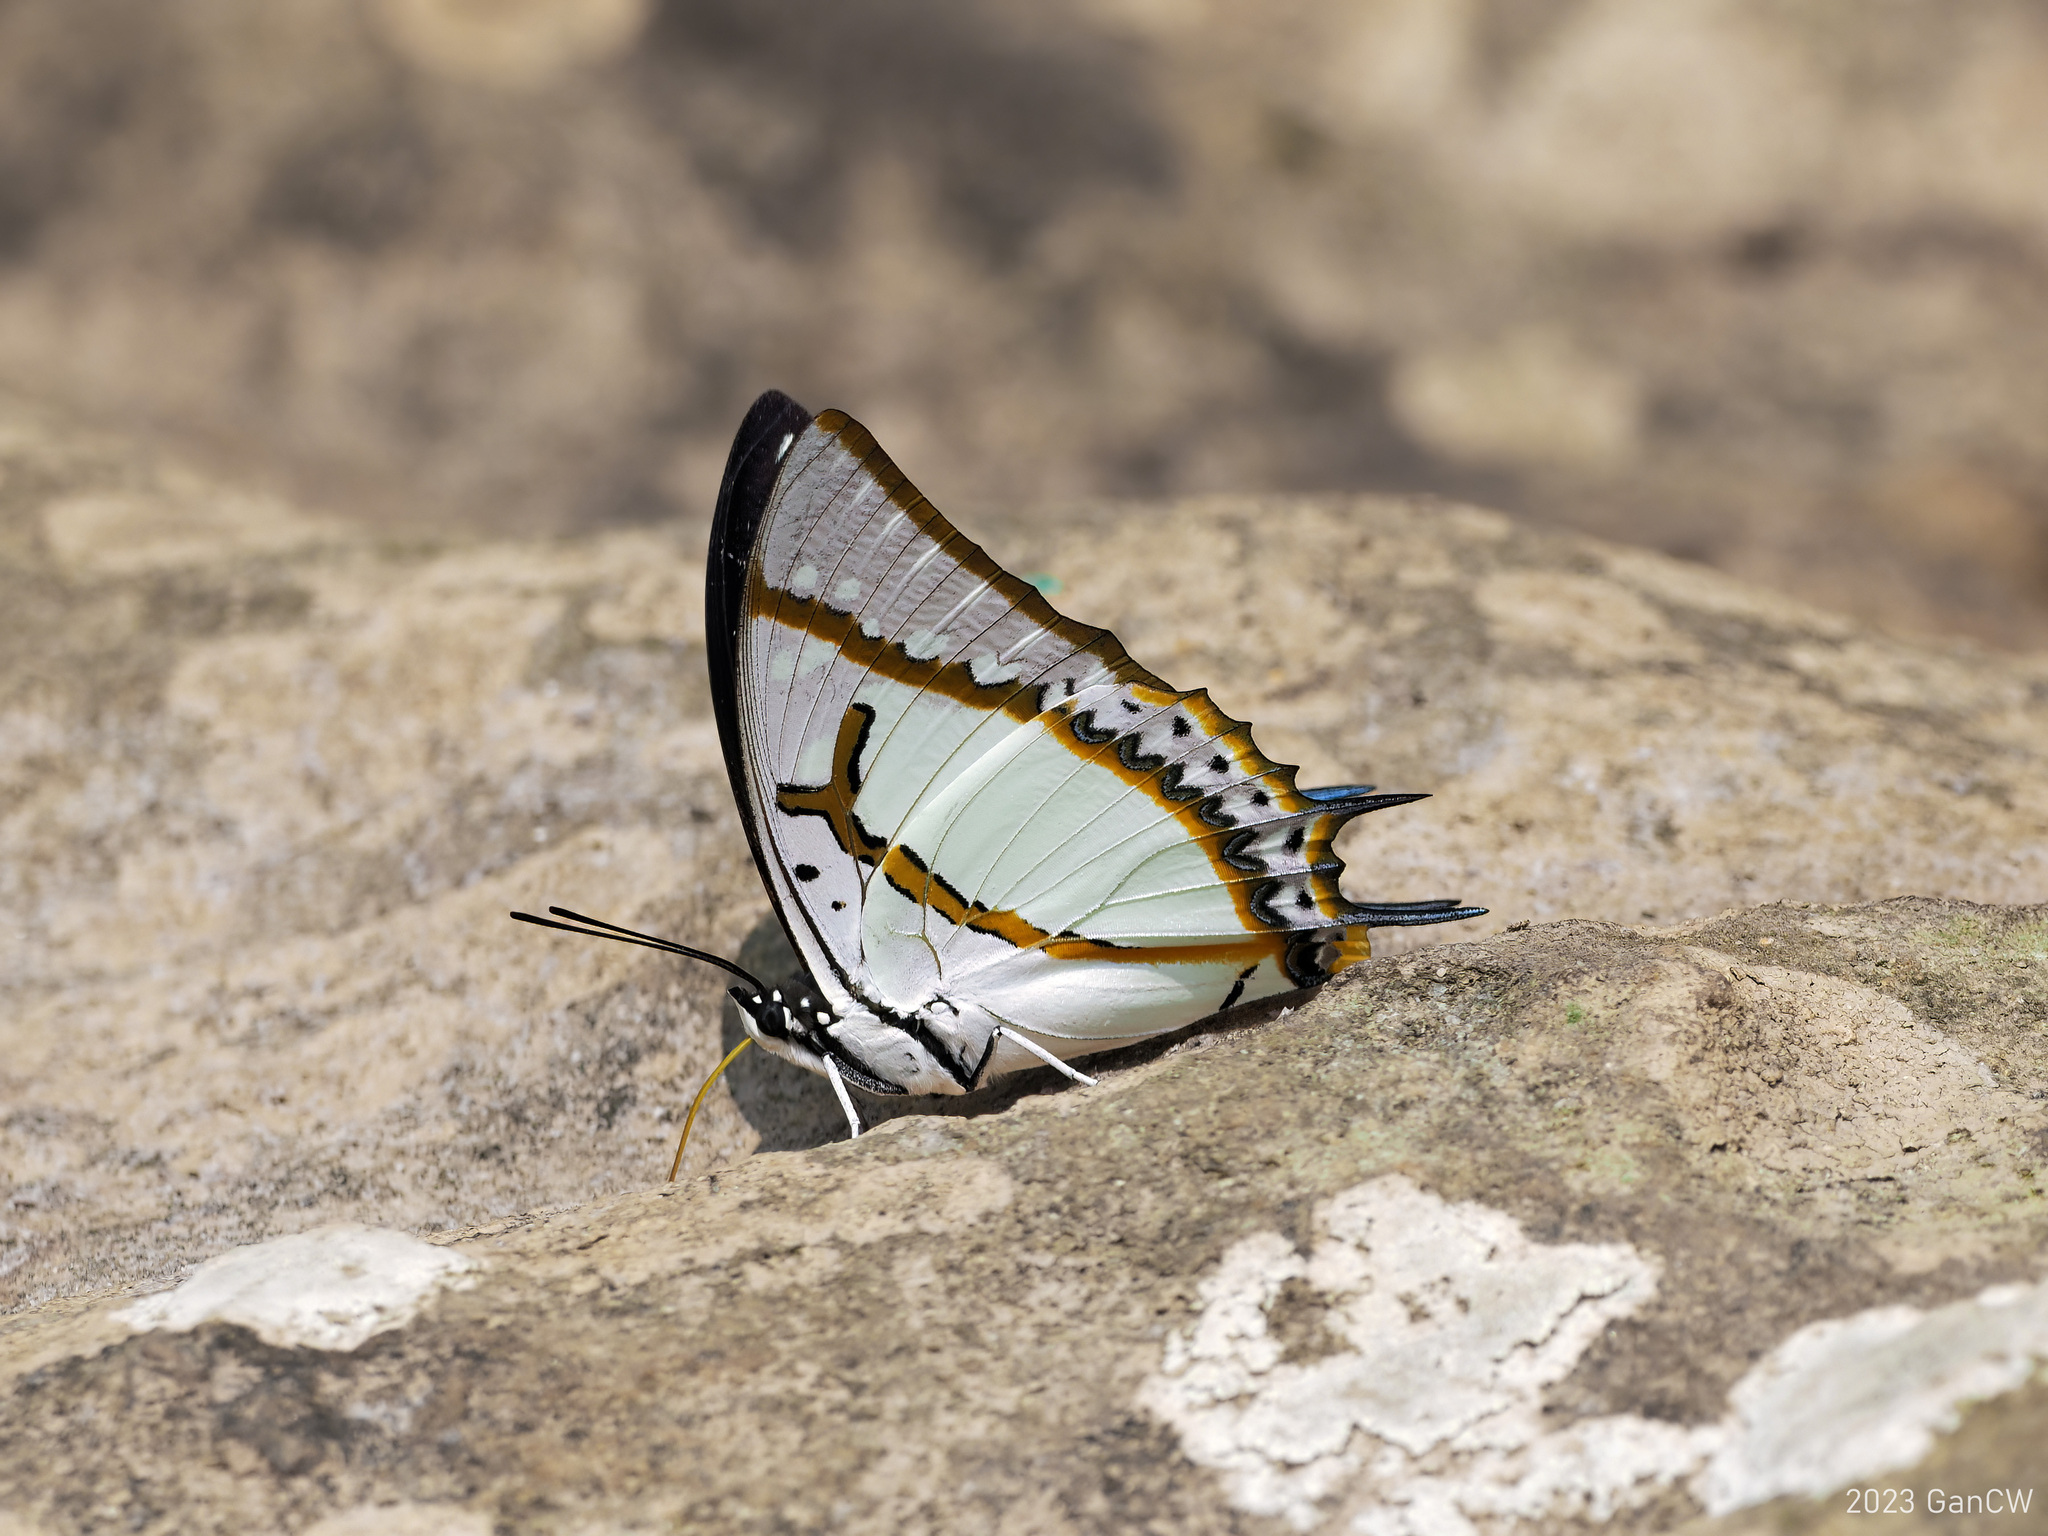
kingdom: Animalia
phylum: Arthropoda
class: Insecta
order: Lepidoptera
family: Nymphalidae
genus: Polyura
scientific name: Polyura eudamippus
